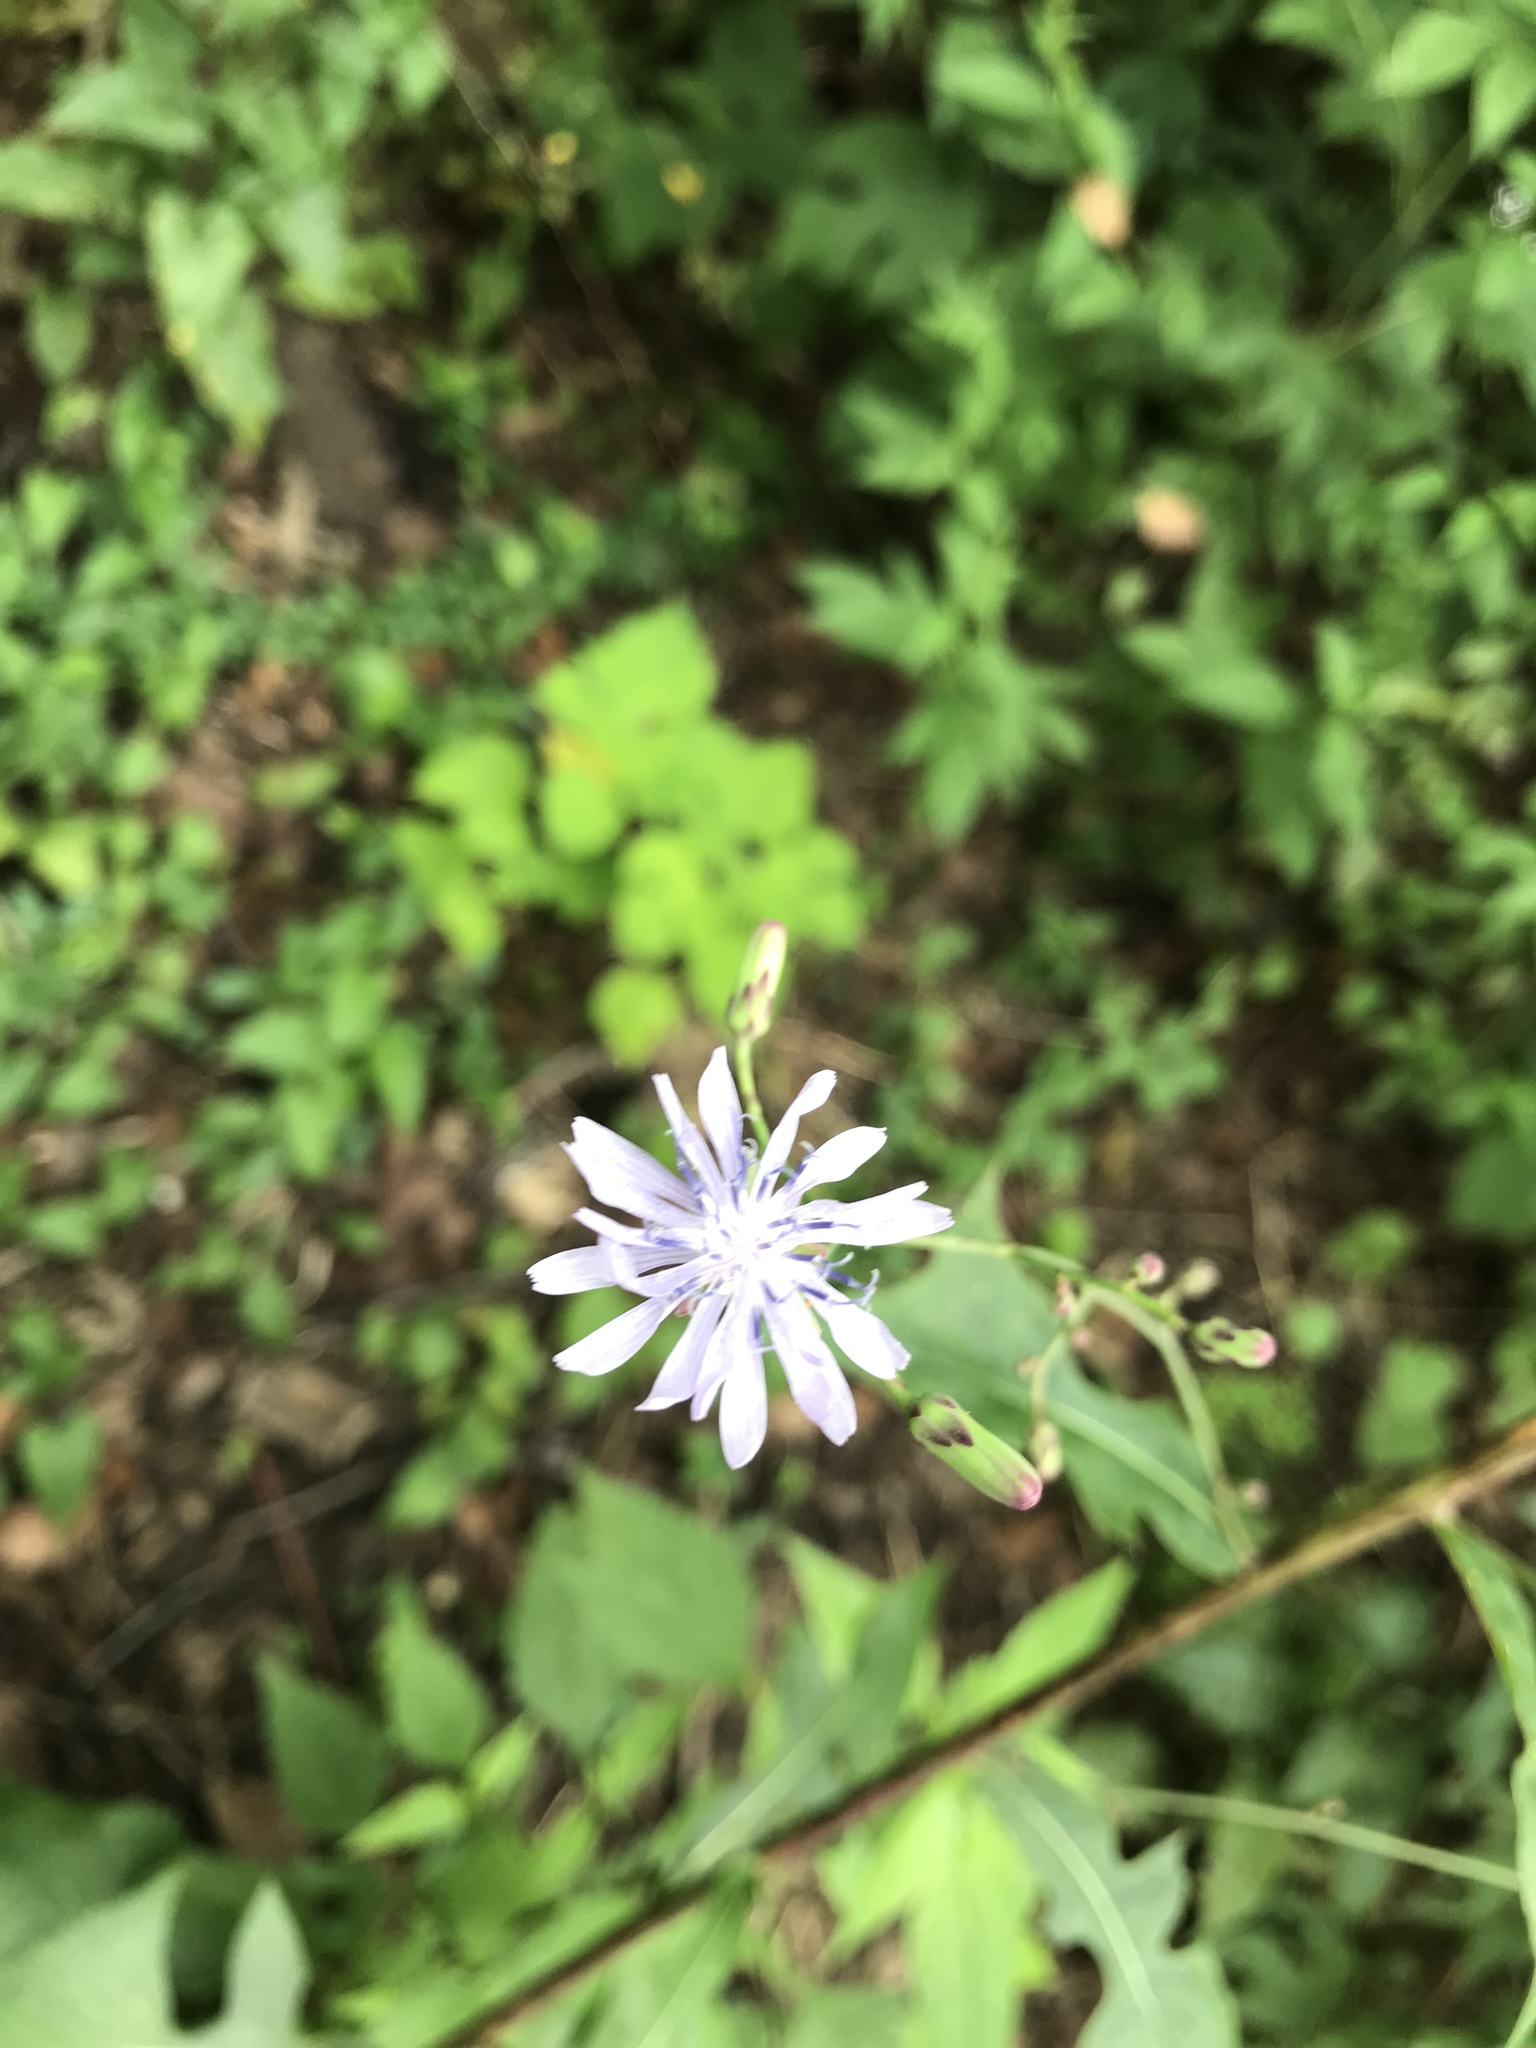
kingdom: Plantae
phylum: Tracheophyta
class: Magnoliopsida
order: Asterales
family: Asteraceae
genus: Lactuca
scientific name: Lactuca floridana
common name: Woodland lettuce
